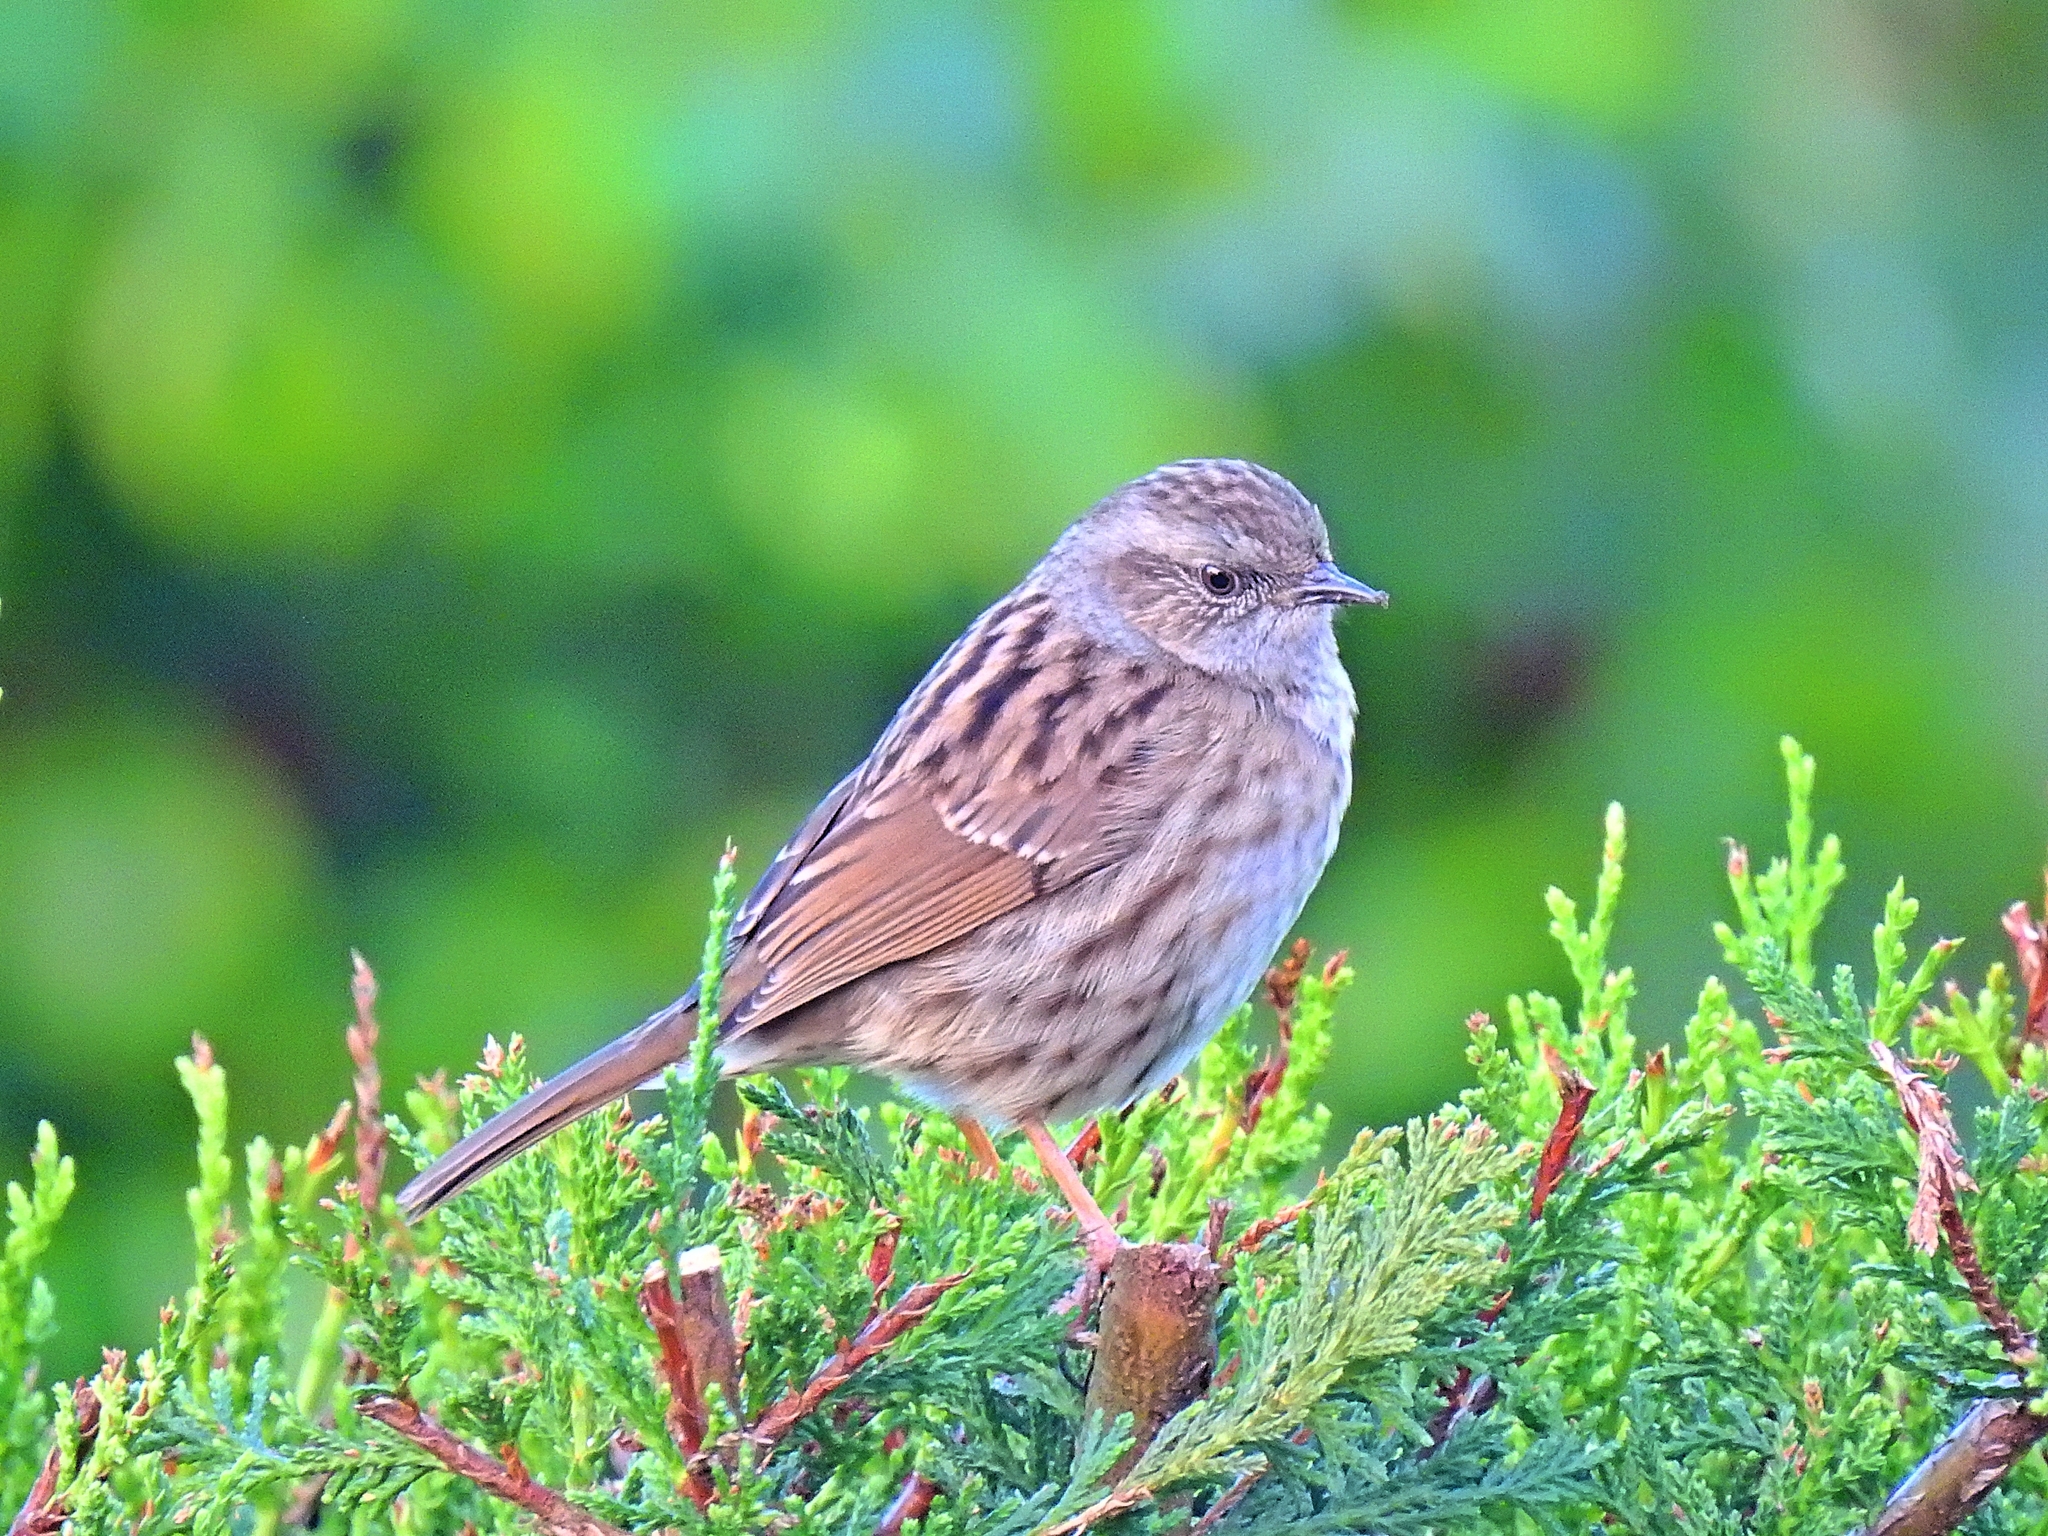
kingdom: Animalia
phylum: Chordata
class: Aves
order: Passeriformes
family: Prunellidae
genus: Prunella
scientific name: Prunella modularis
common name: Dunnock
